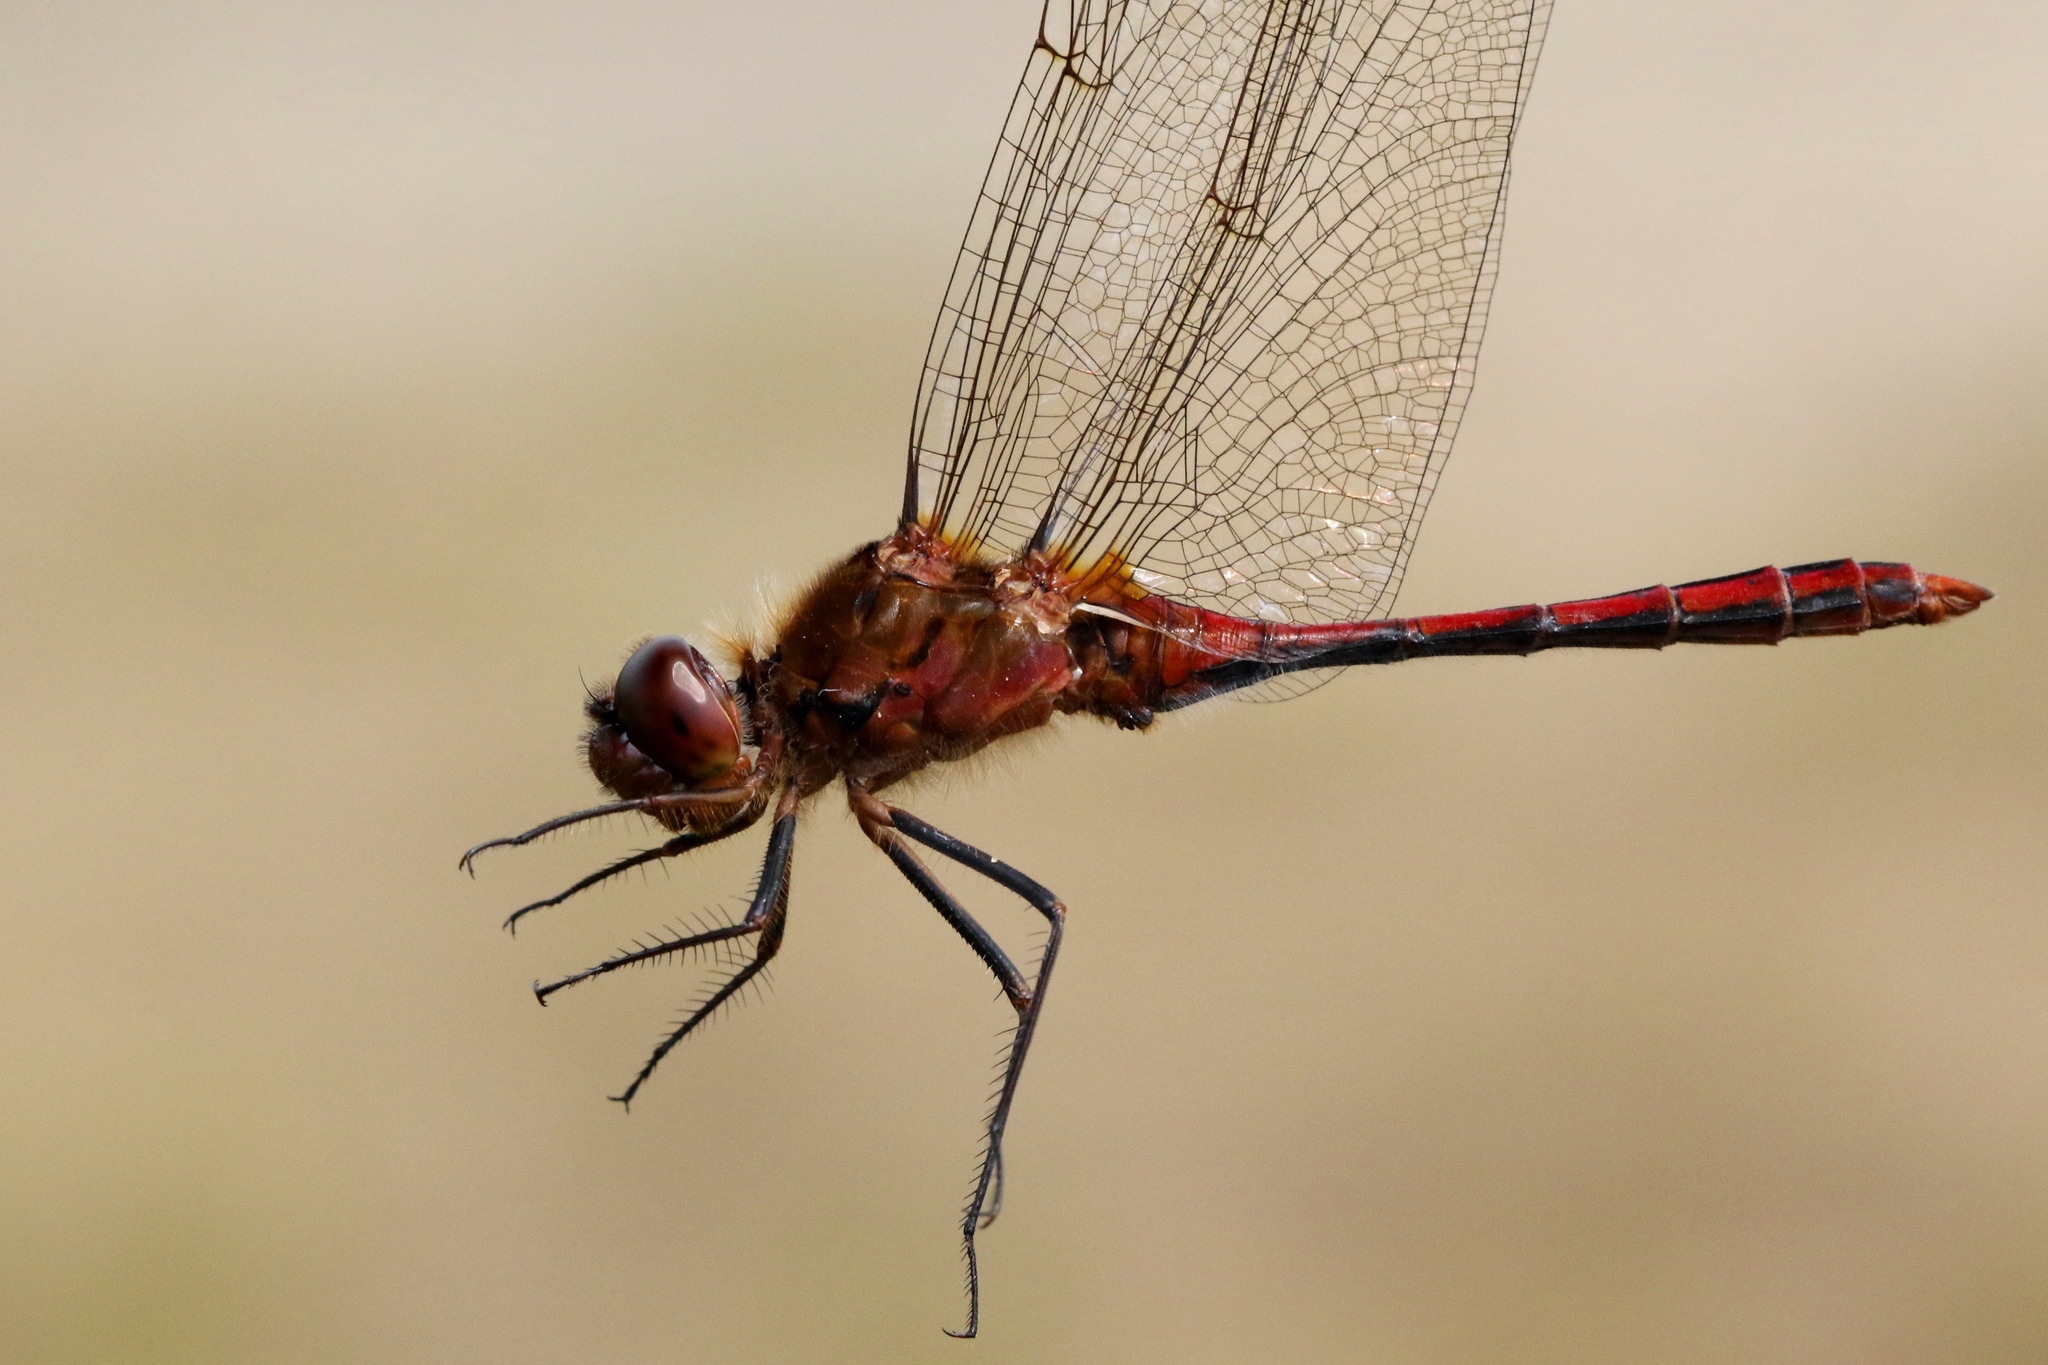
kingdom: Animalia
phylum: Arthropoda
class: Insecta
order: Odonata
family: Libellulidae
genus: Sympetrum
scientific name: Sympetrum costiferum
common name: Saffron-winged meadowhawk
